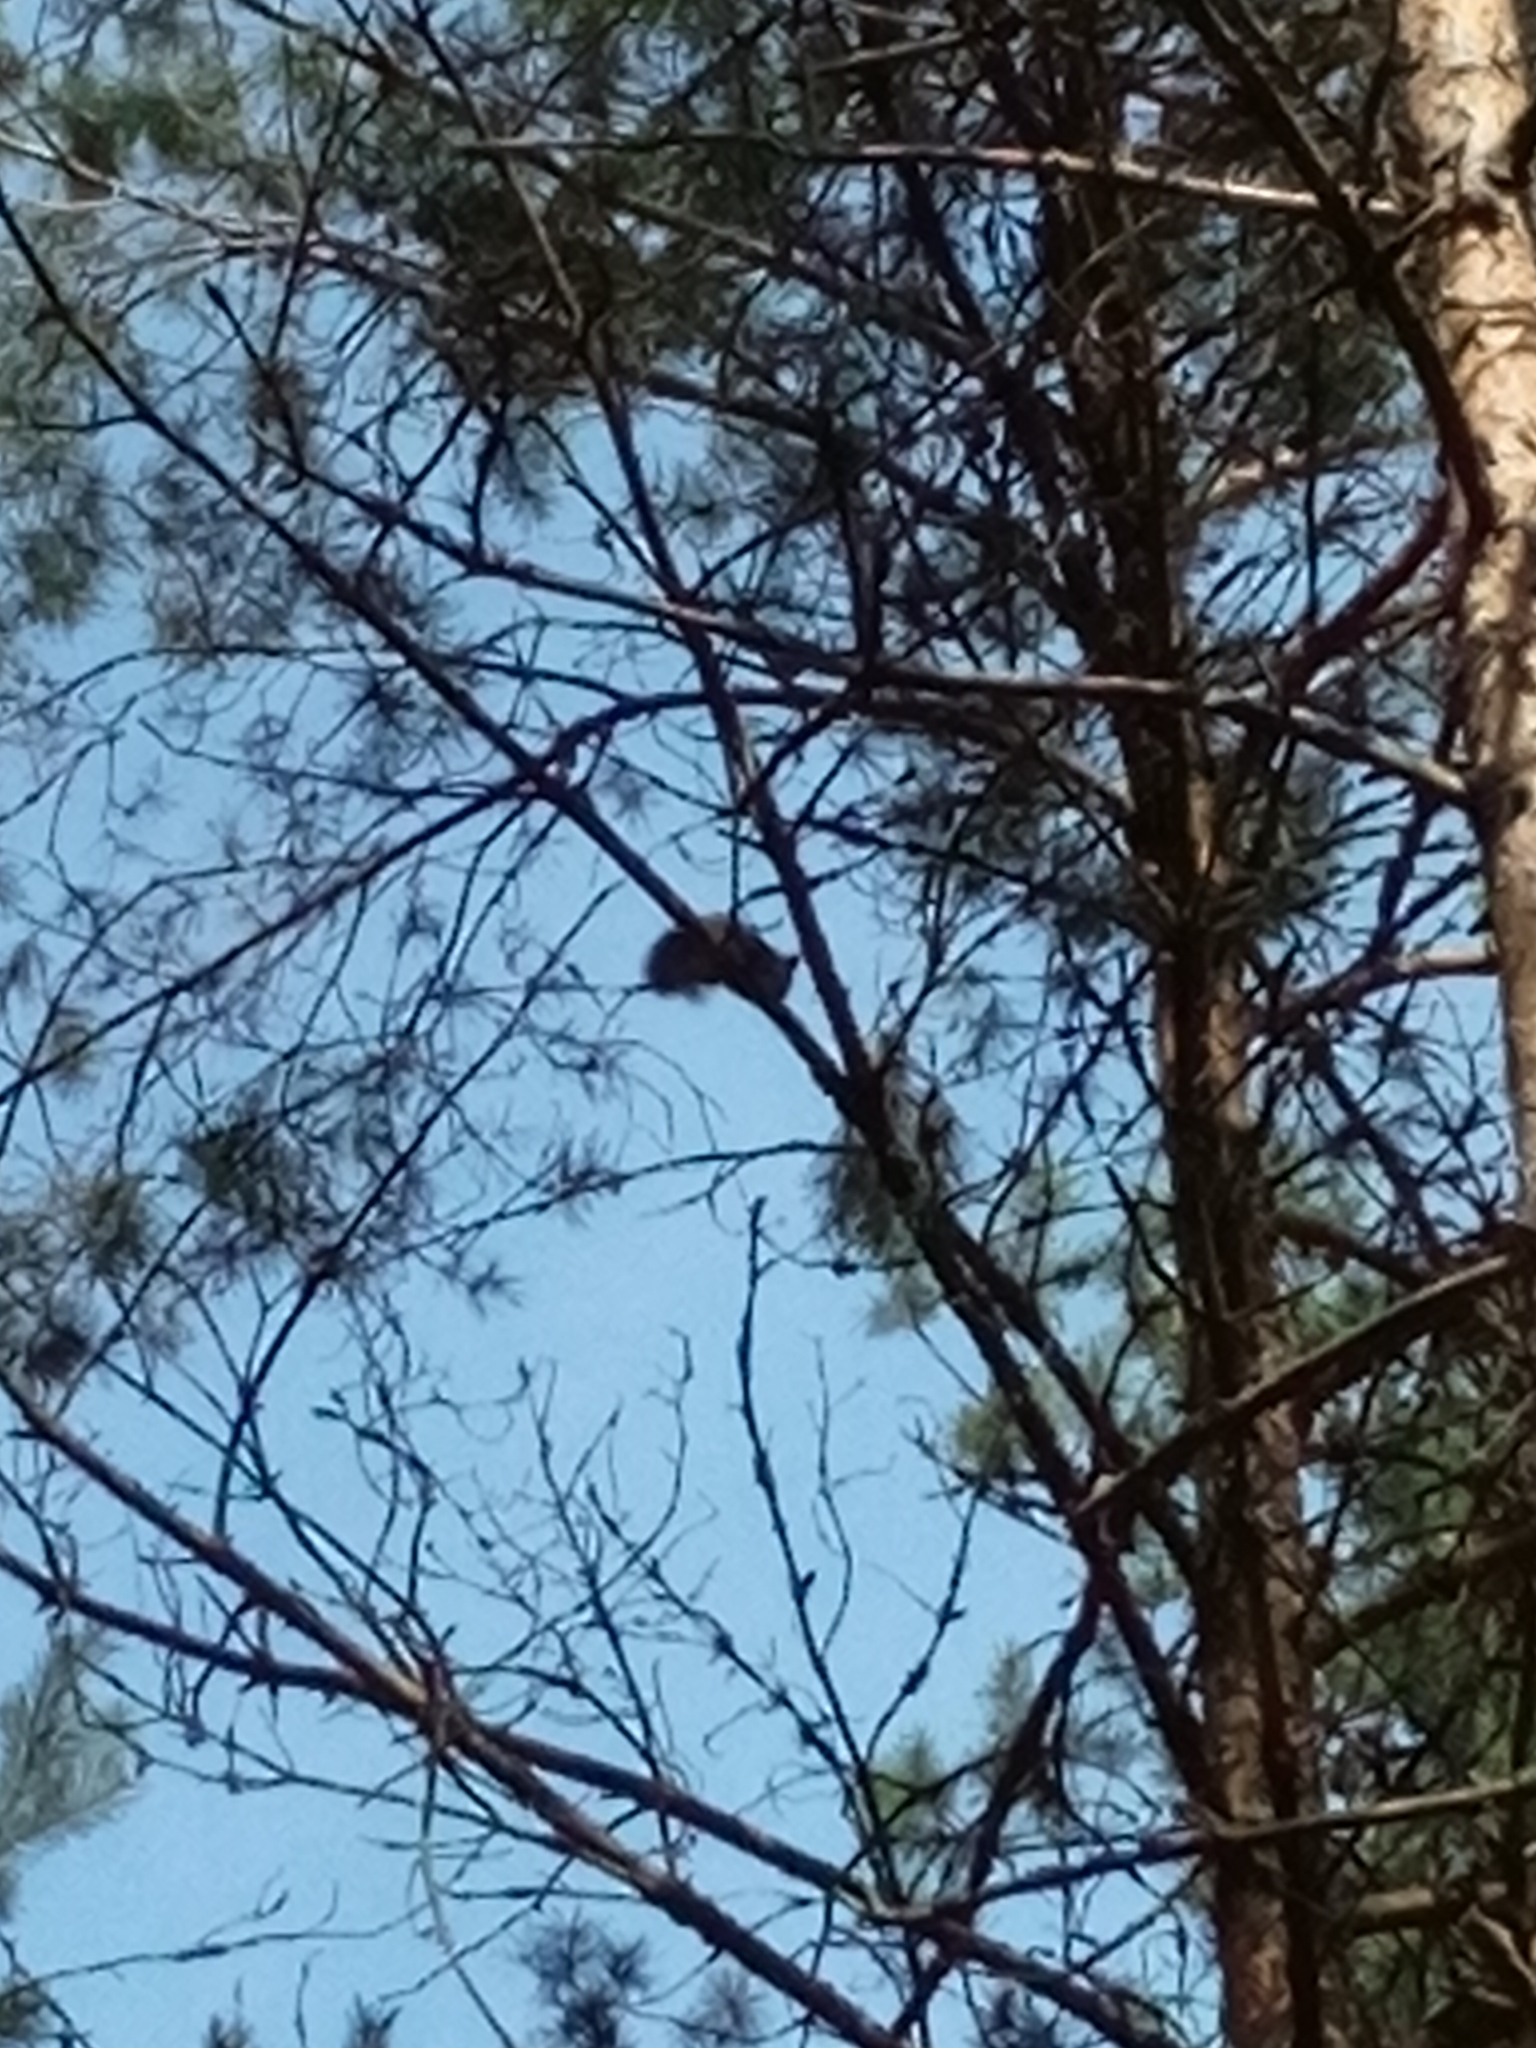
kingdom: Animalia
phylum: Chordata
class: Mammalia
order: Rodentia
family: Sciuridae
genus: Sciurus
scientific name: Sciurus vulgaris
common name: Eurasian red squirrel
